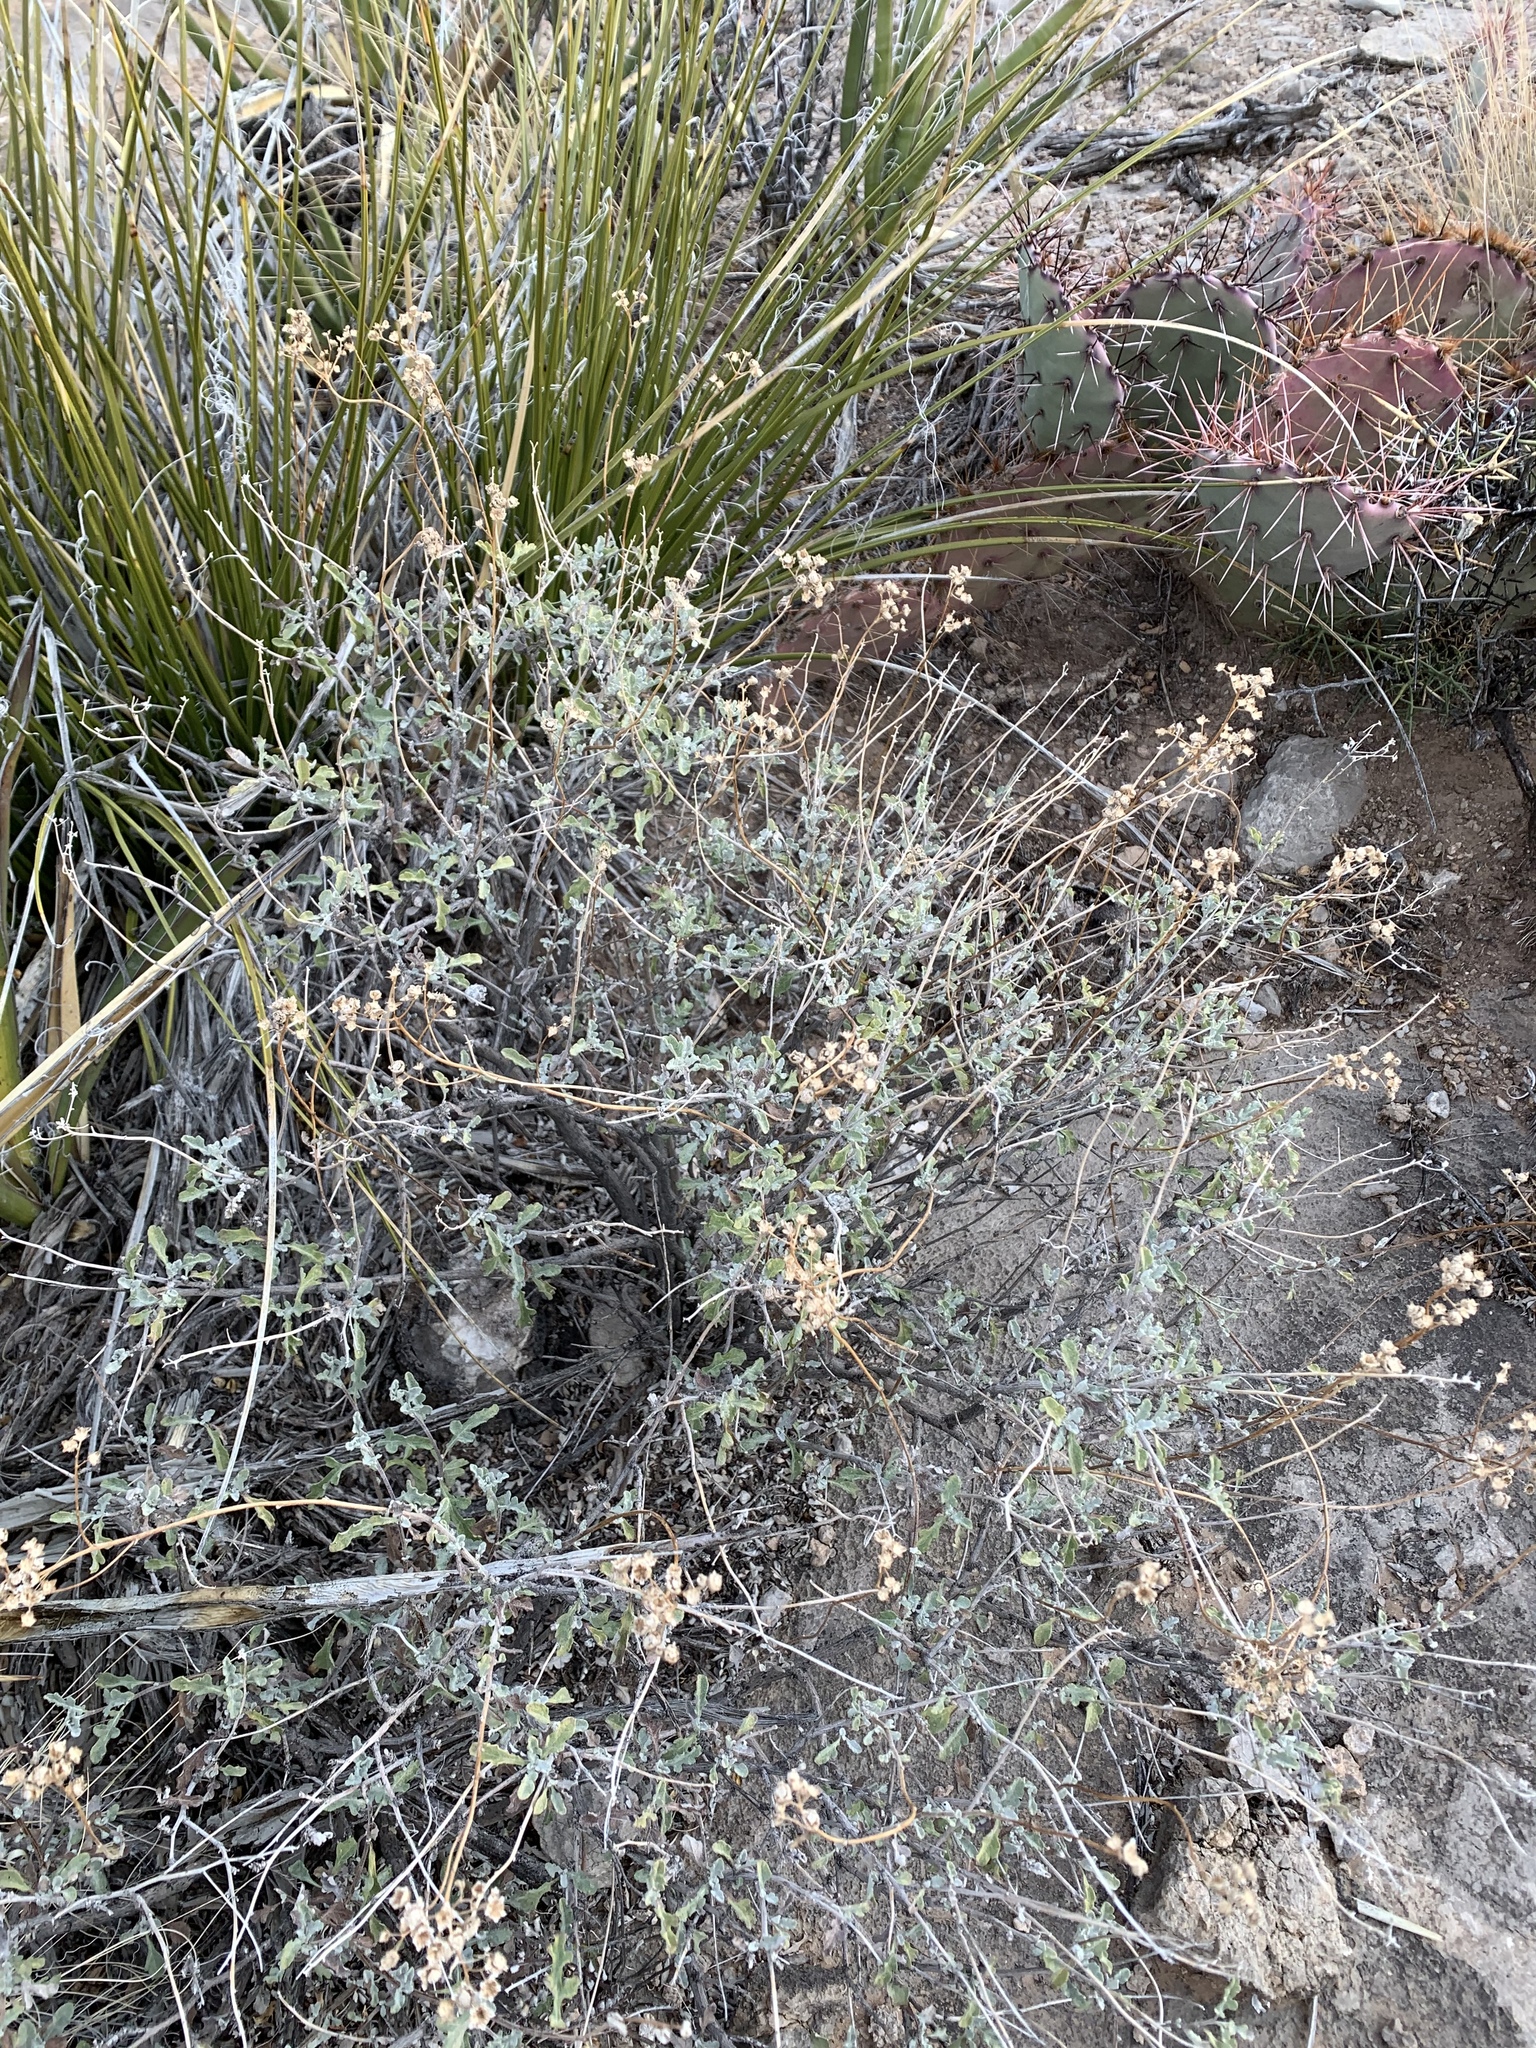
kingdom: Plantae
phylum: Tracheophyta
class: Magnoliopsida
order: Asterales
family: Asteraceae
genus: Parthenium
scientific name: Parthenium incanum
